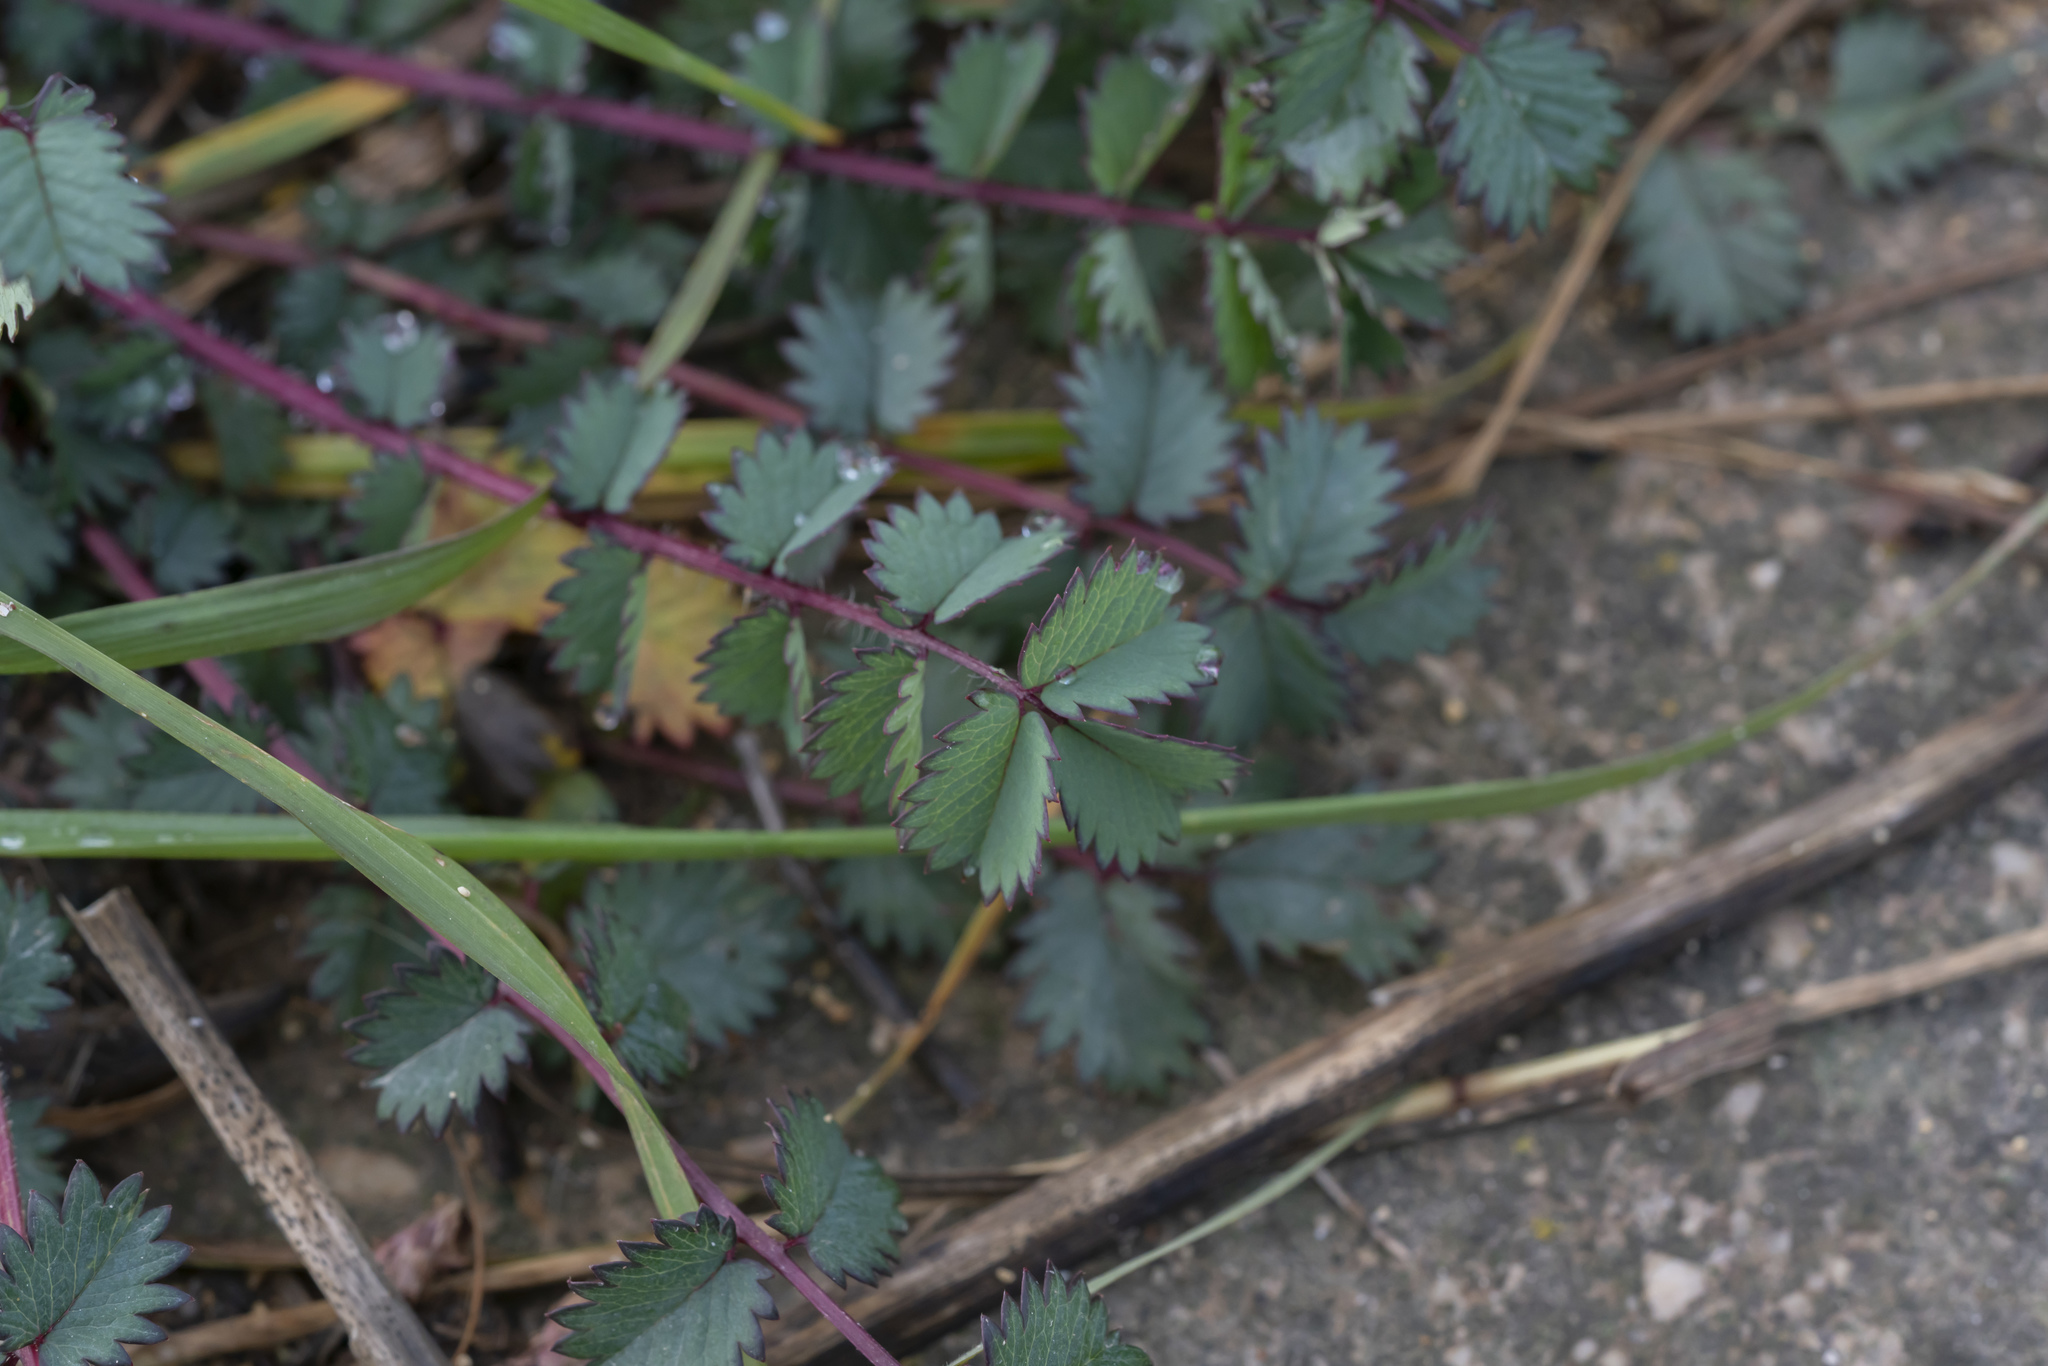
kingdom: Plantae
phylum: Tracheophyta
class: Magnoliopsida
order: Rosales
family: Rosaceae
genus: Poterium
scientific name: Poterium
